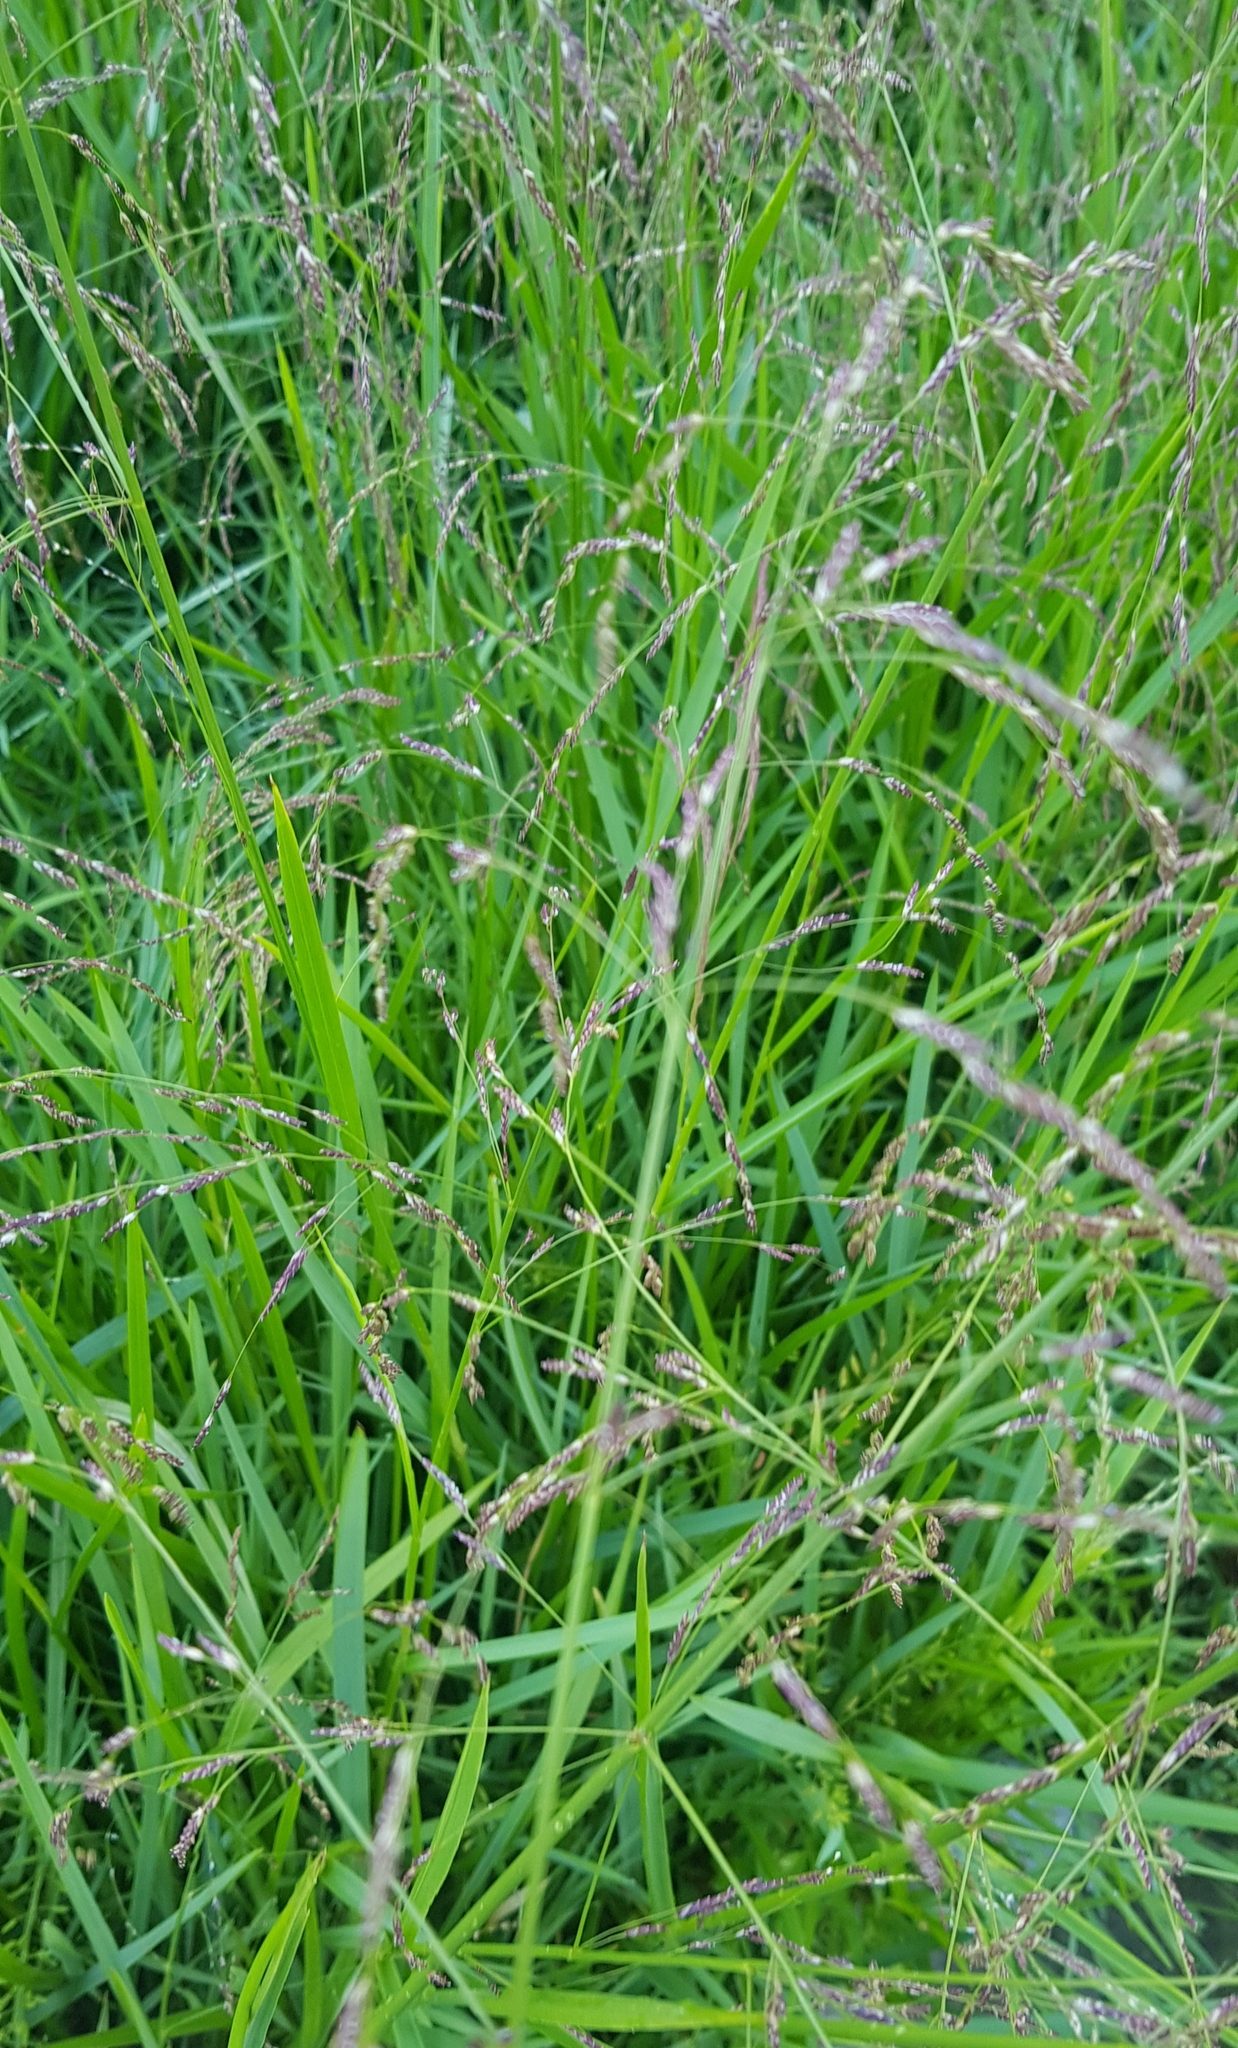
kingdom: Plantae
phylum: Tracheophyta
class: Liliopsida
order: Poales
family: Poaceae
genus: Poa
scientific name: Poa subfastigiata
